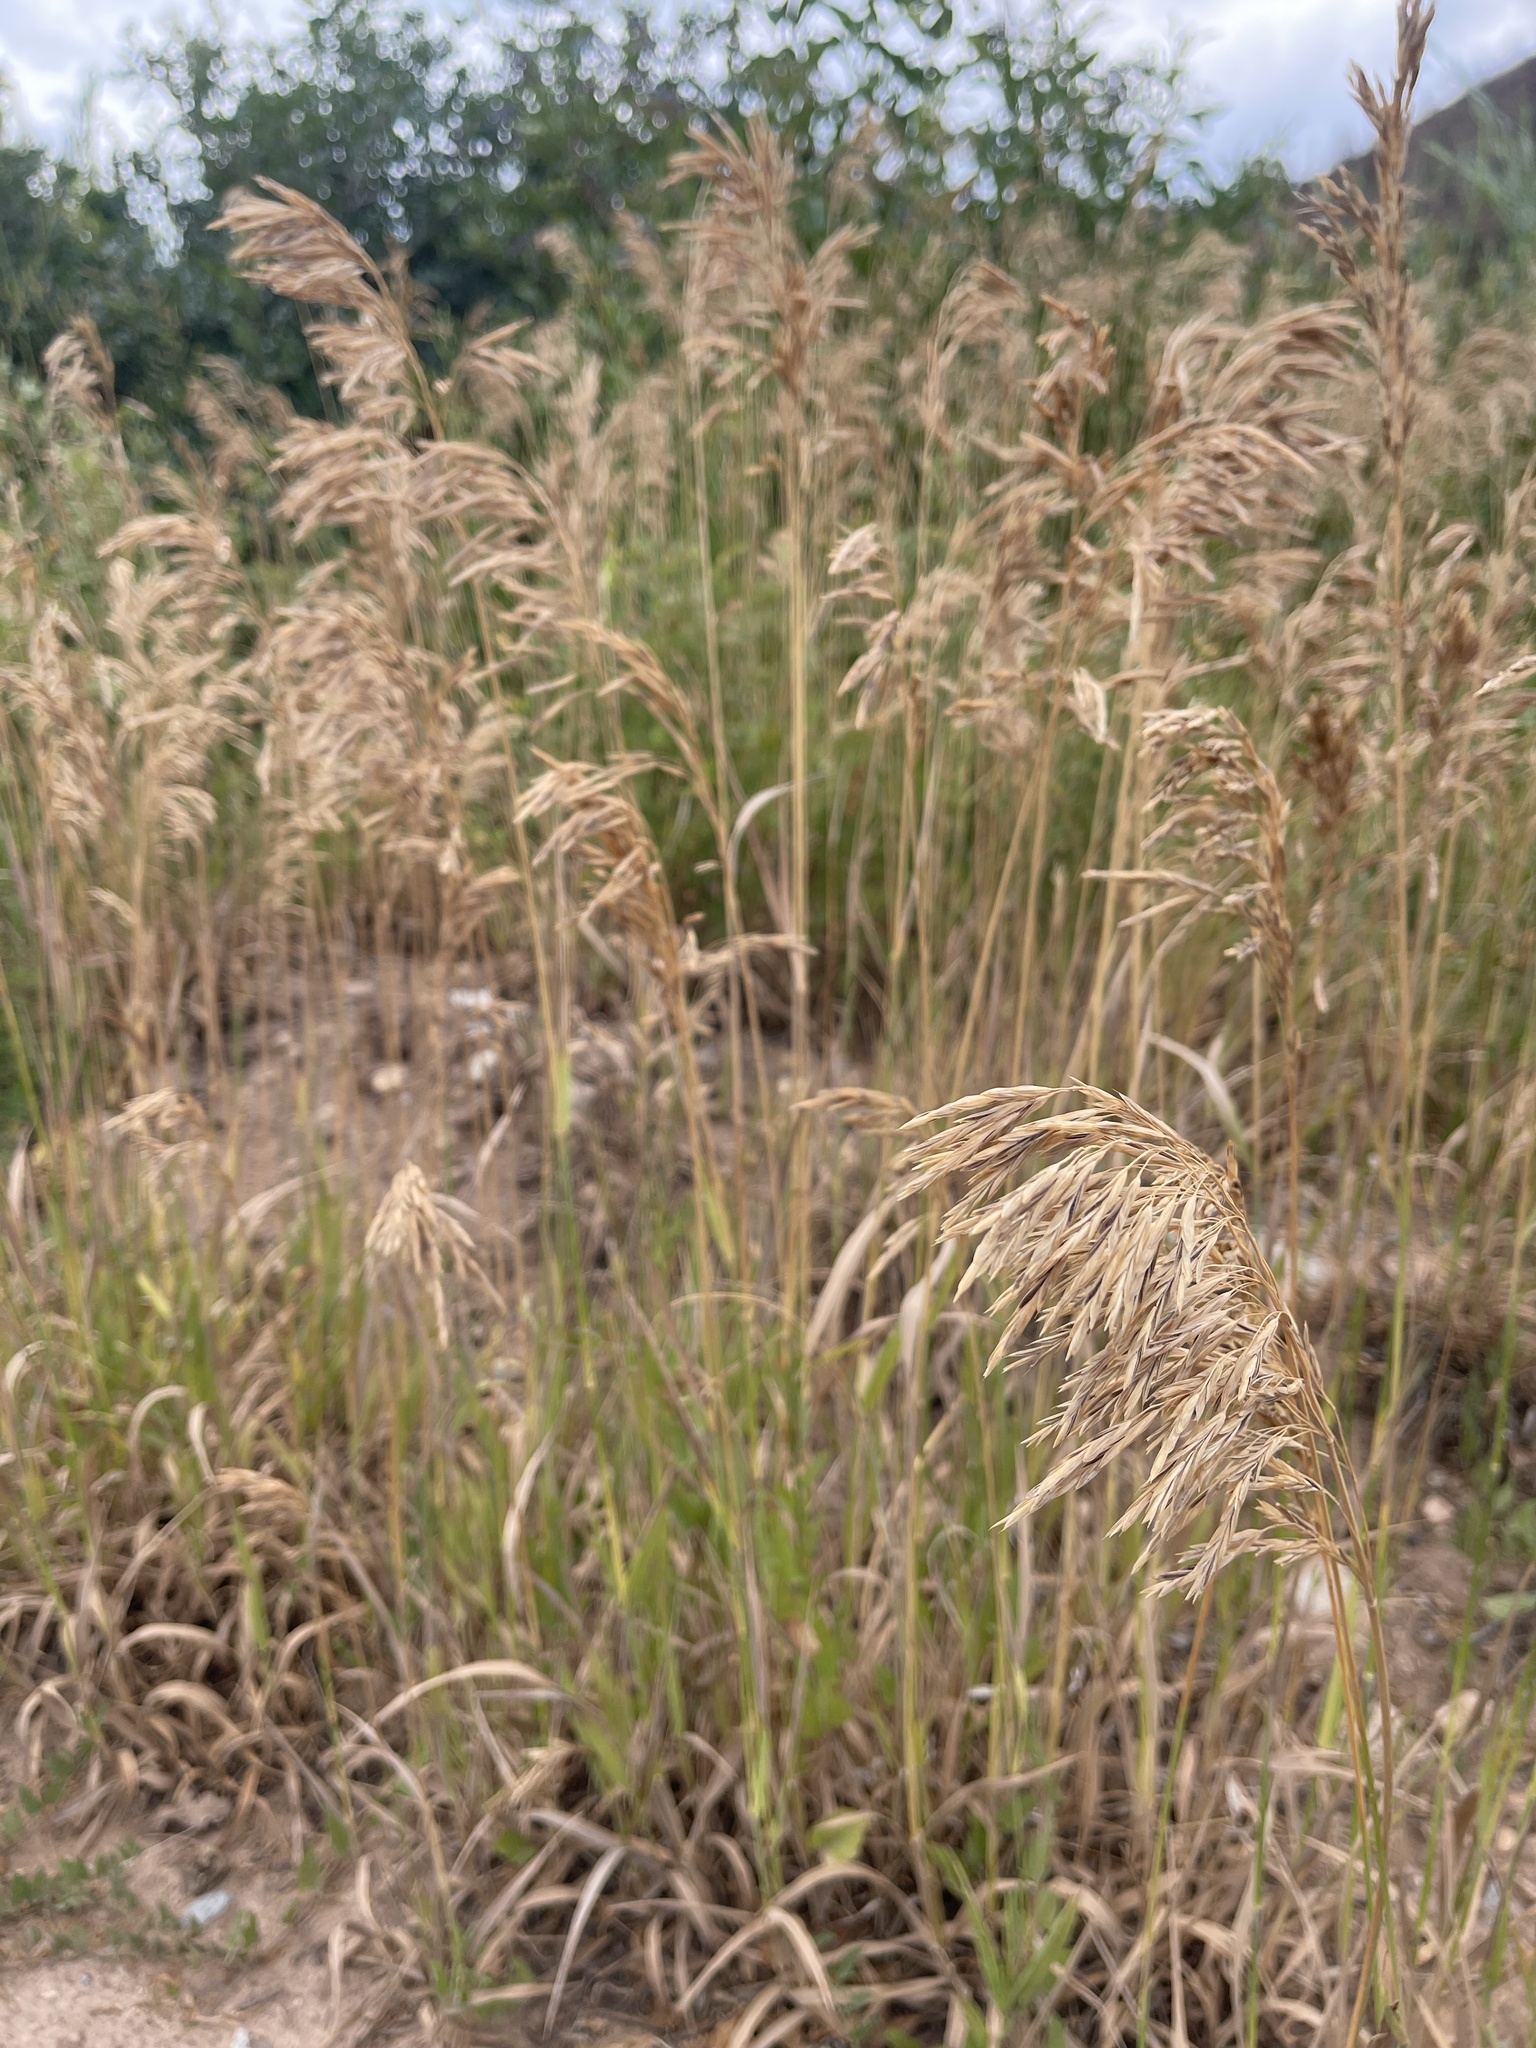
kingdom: Plantae
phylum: Tracheophyta
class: Liliopsida
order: Poales
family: Poaceae
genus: Bromus
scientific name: Bromus inermis
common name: Smooth brome
